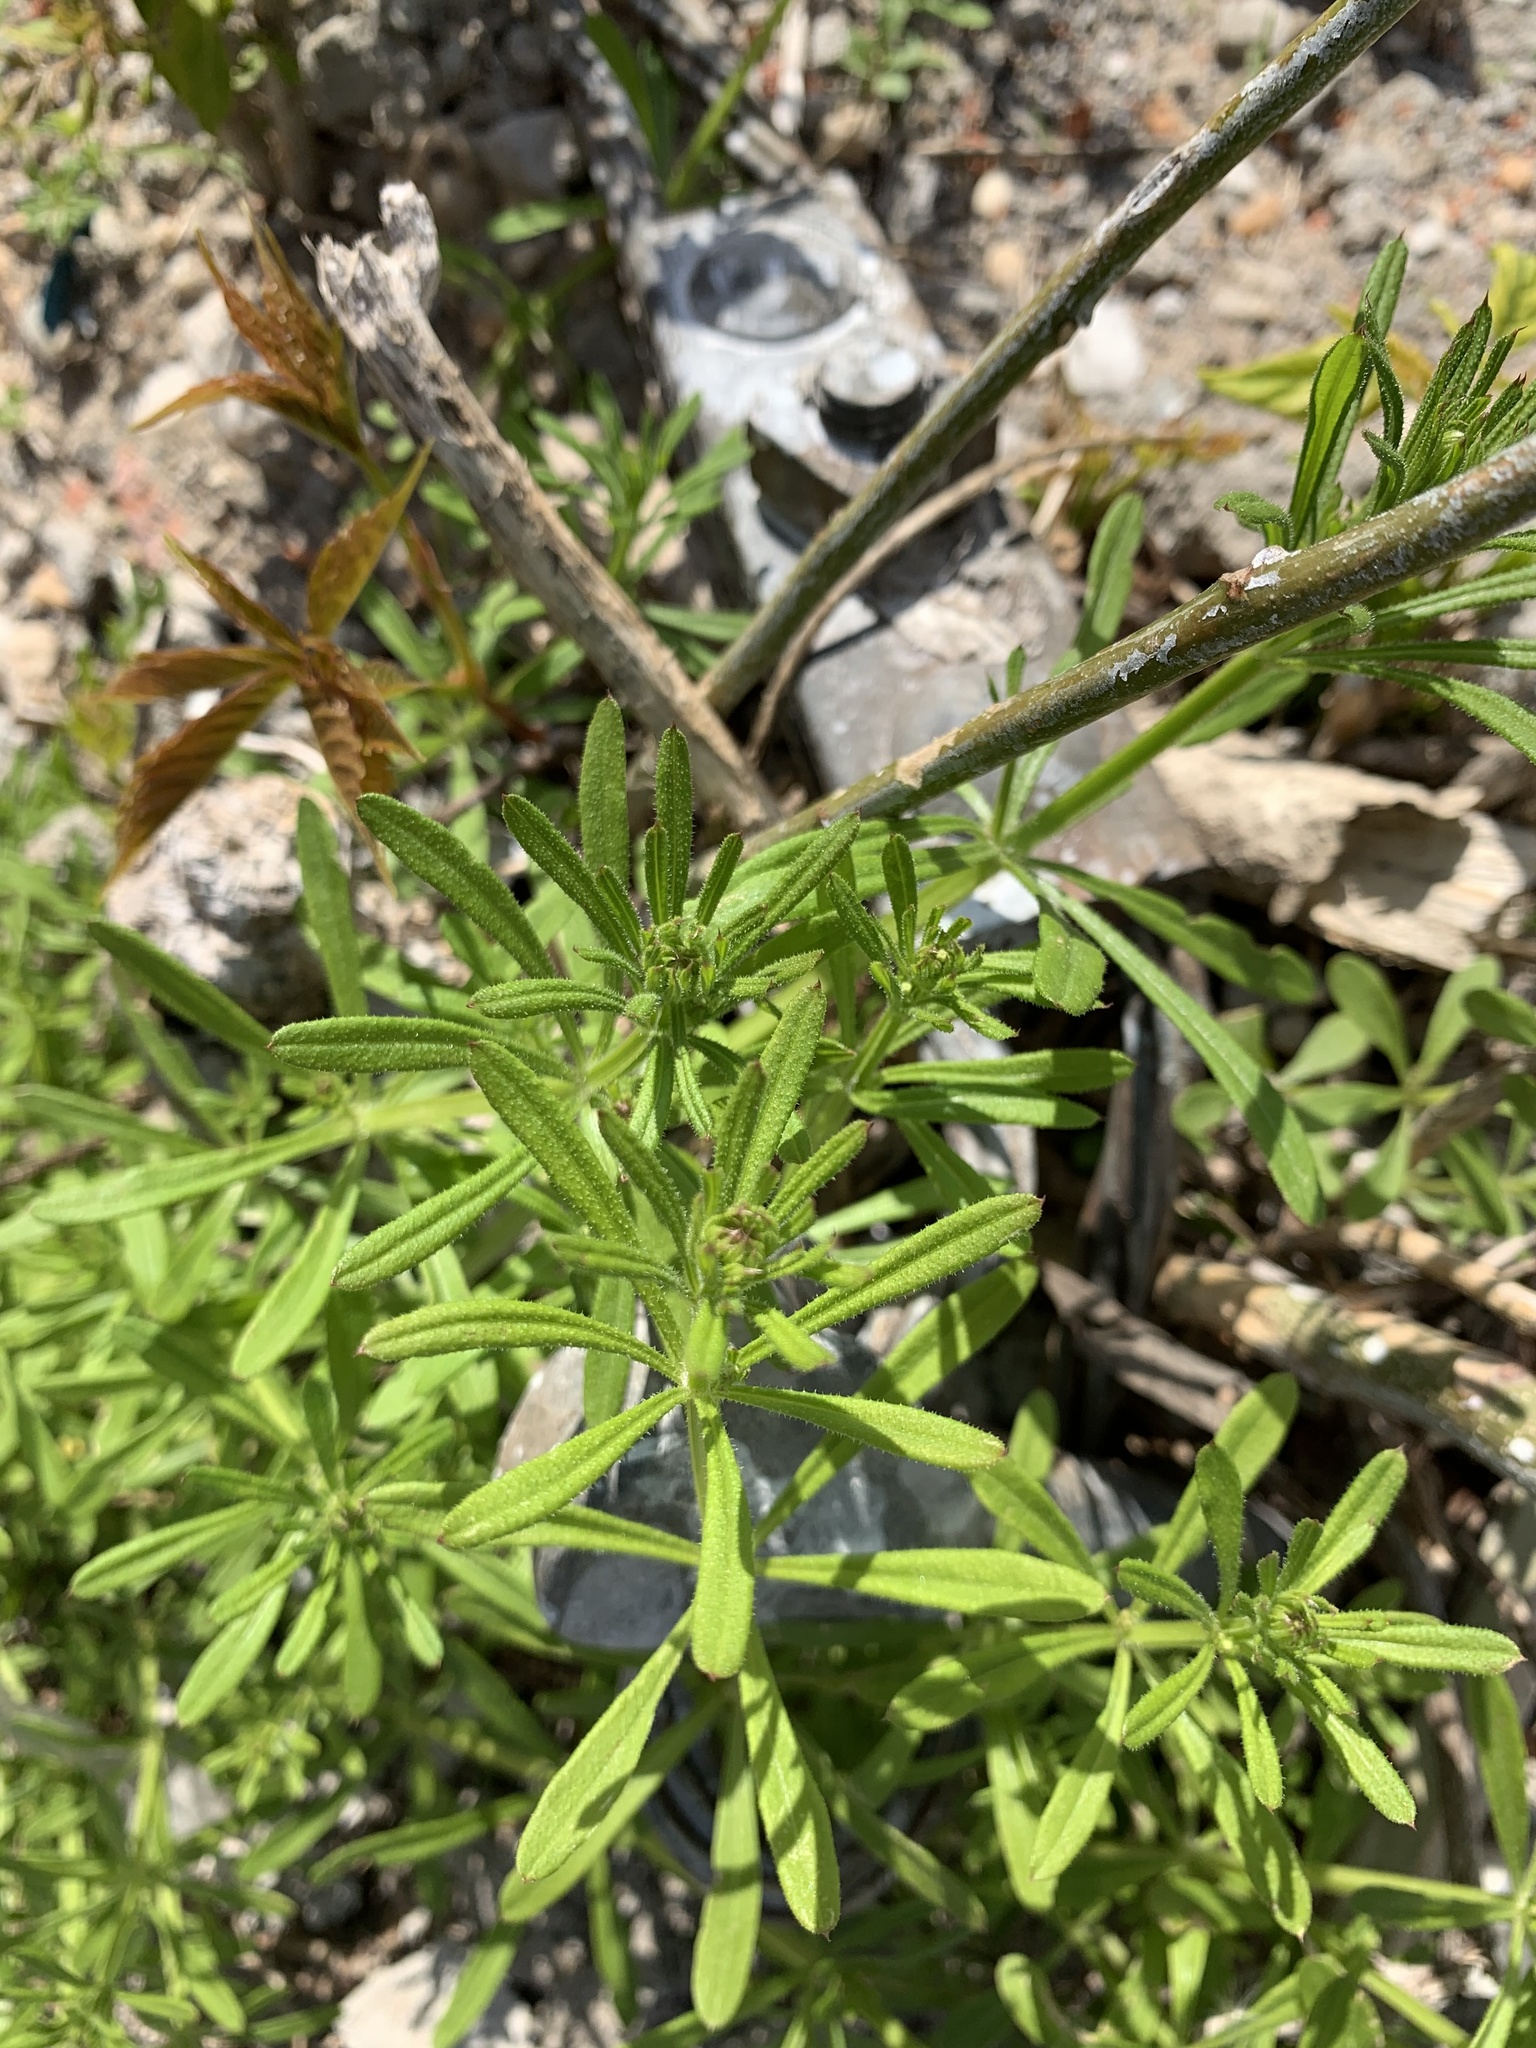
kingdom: Plantae
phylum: Tracheophyta
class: Magnoliopsida
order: Gentianales
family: Rubiaceae
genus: Galium
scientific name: Galium aparine
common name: Cleavers
